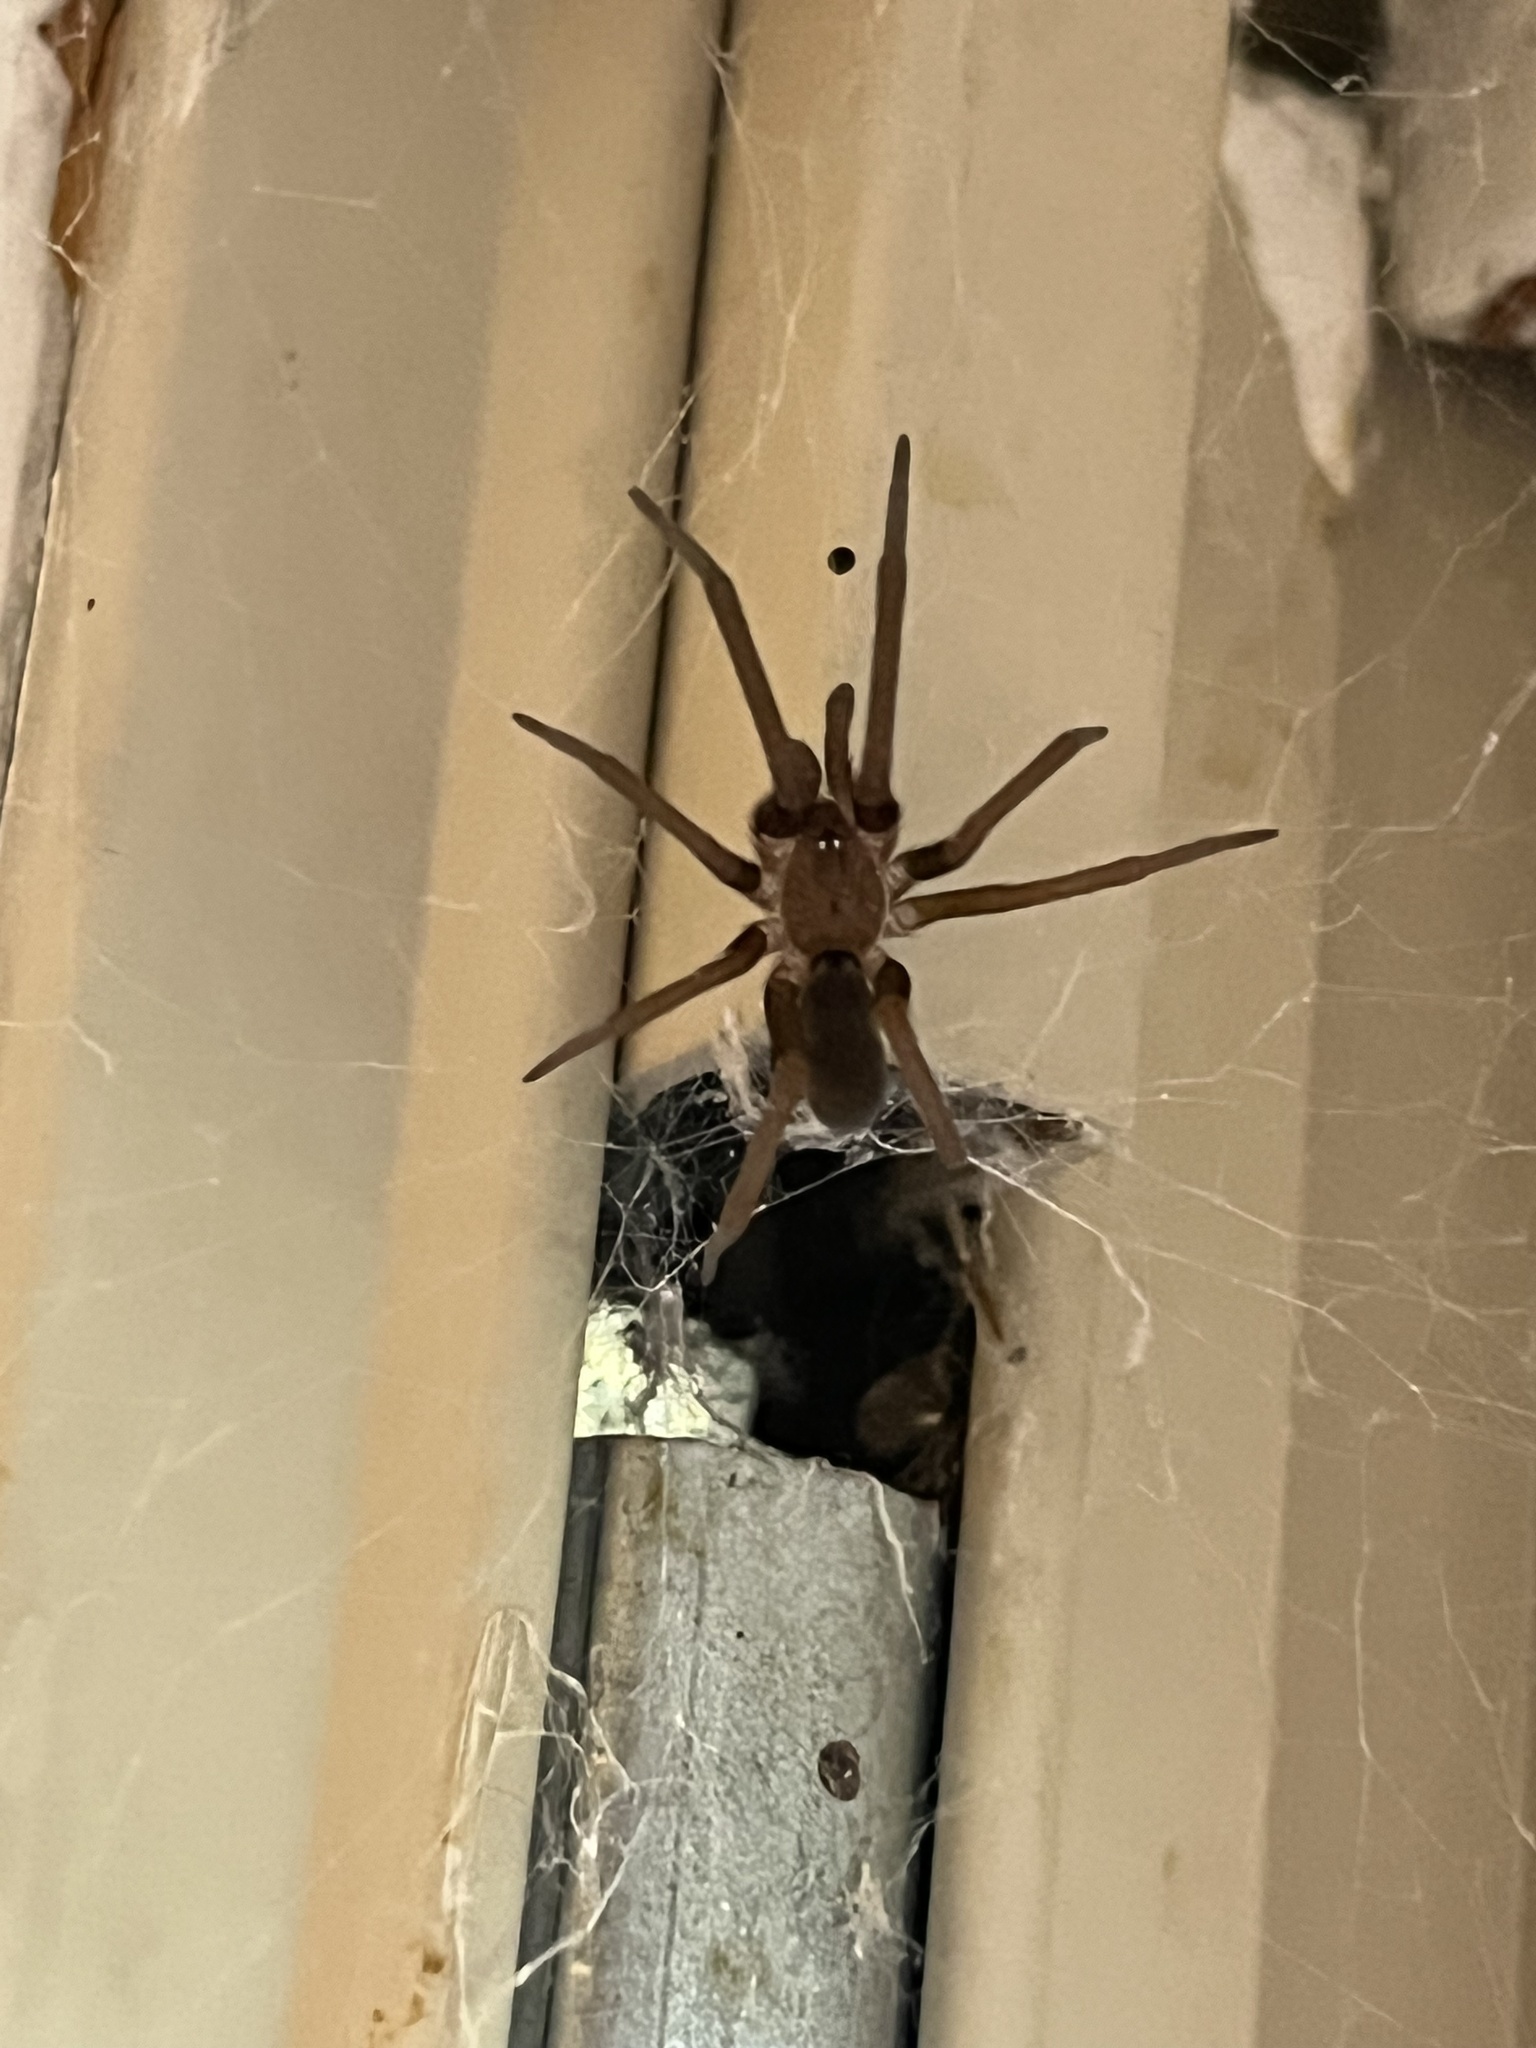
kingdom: Animalia
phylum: Arthropoda
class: Arachnida
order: Araneae
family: Filistatidae
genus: Kukulcania
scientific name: Kukulcania hibernalis
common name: Crevice weaver
